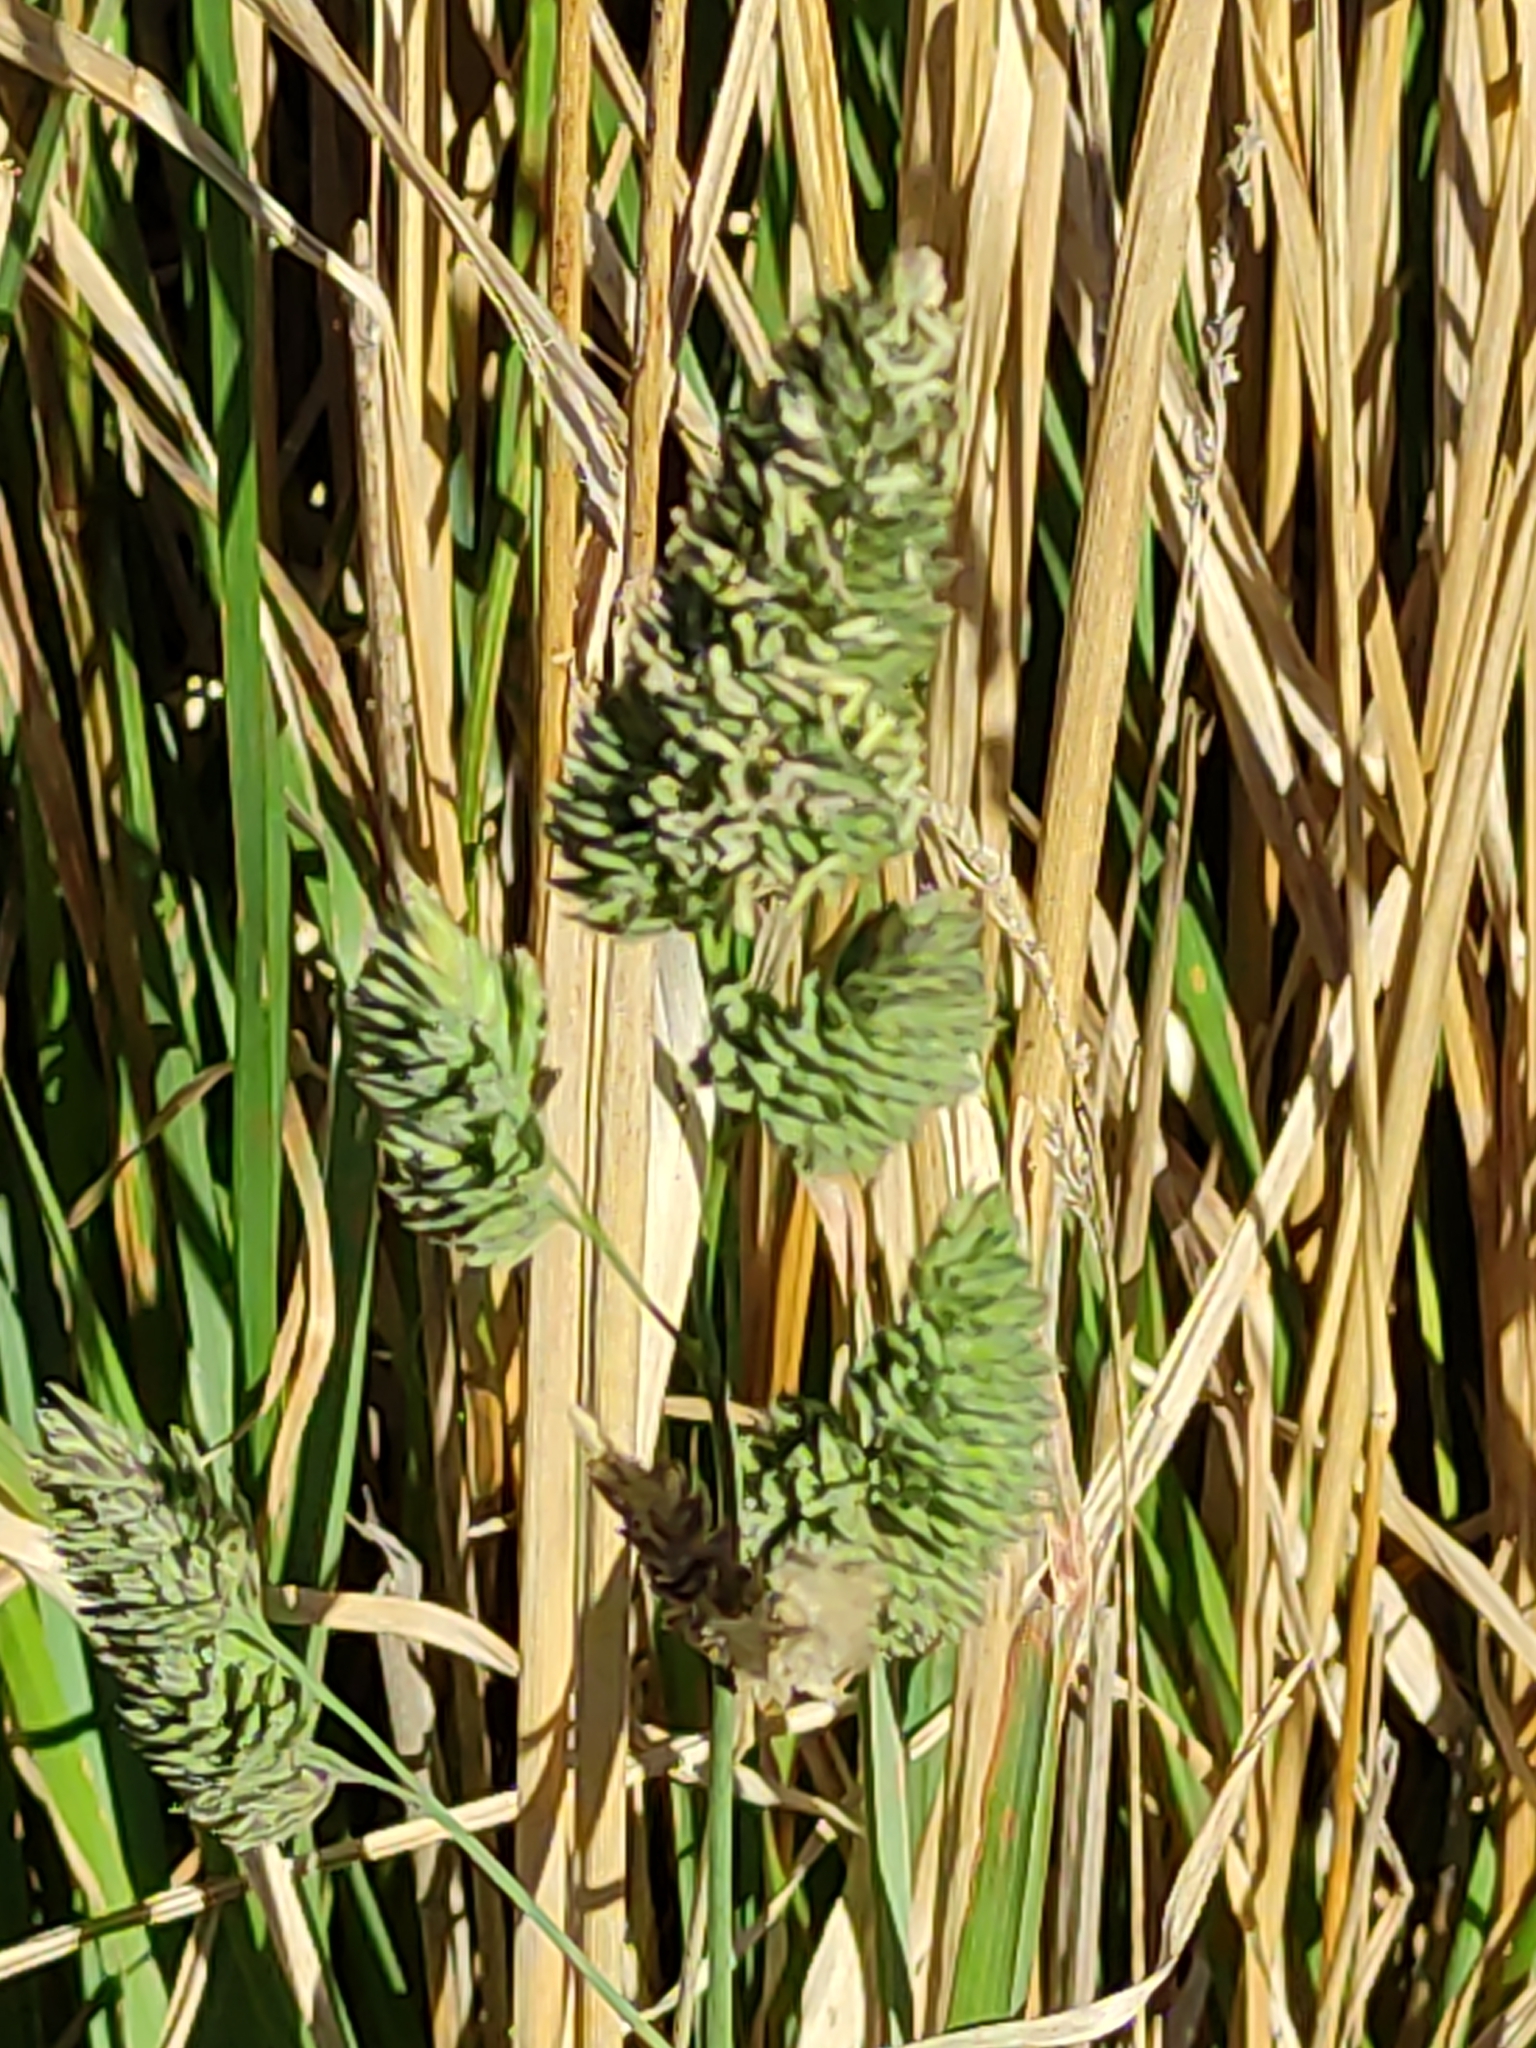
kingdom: Plantae
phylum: Tracheophyta
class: Liliopsida
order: Poales
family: Poaceae
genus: Dactylis
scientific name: Dactylis glomerata
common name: Orchardgrass
